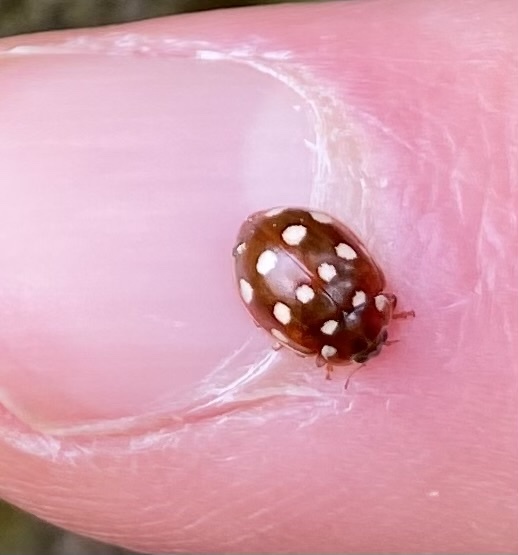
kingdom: Animalia
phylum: Arthropoda
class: Insecta
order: Coleoptera
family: Coccinellidae
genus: Calvia
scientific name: Calvia quatuordecimguttata
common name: Cream-spot ladybird
